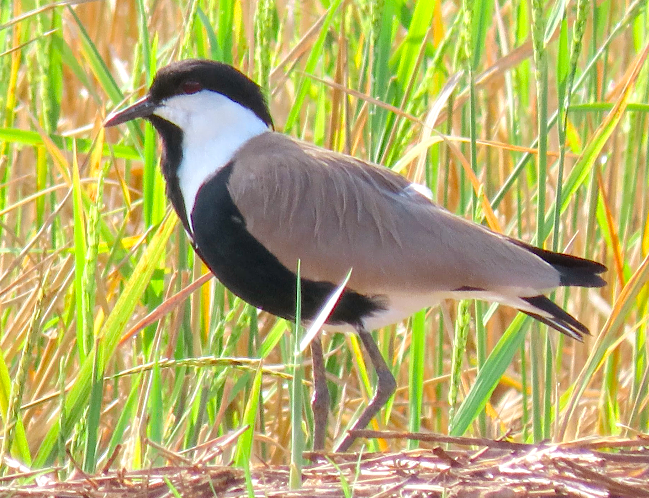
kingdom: Animalia
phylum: Chordata
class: Aves
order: Charadriiformes
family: Charadriidae
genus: Vanellus
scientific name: Vanellus spinosus
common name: Spur-winged lapwing
